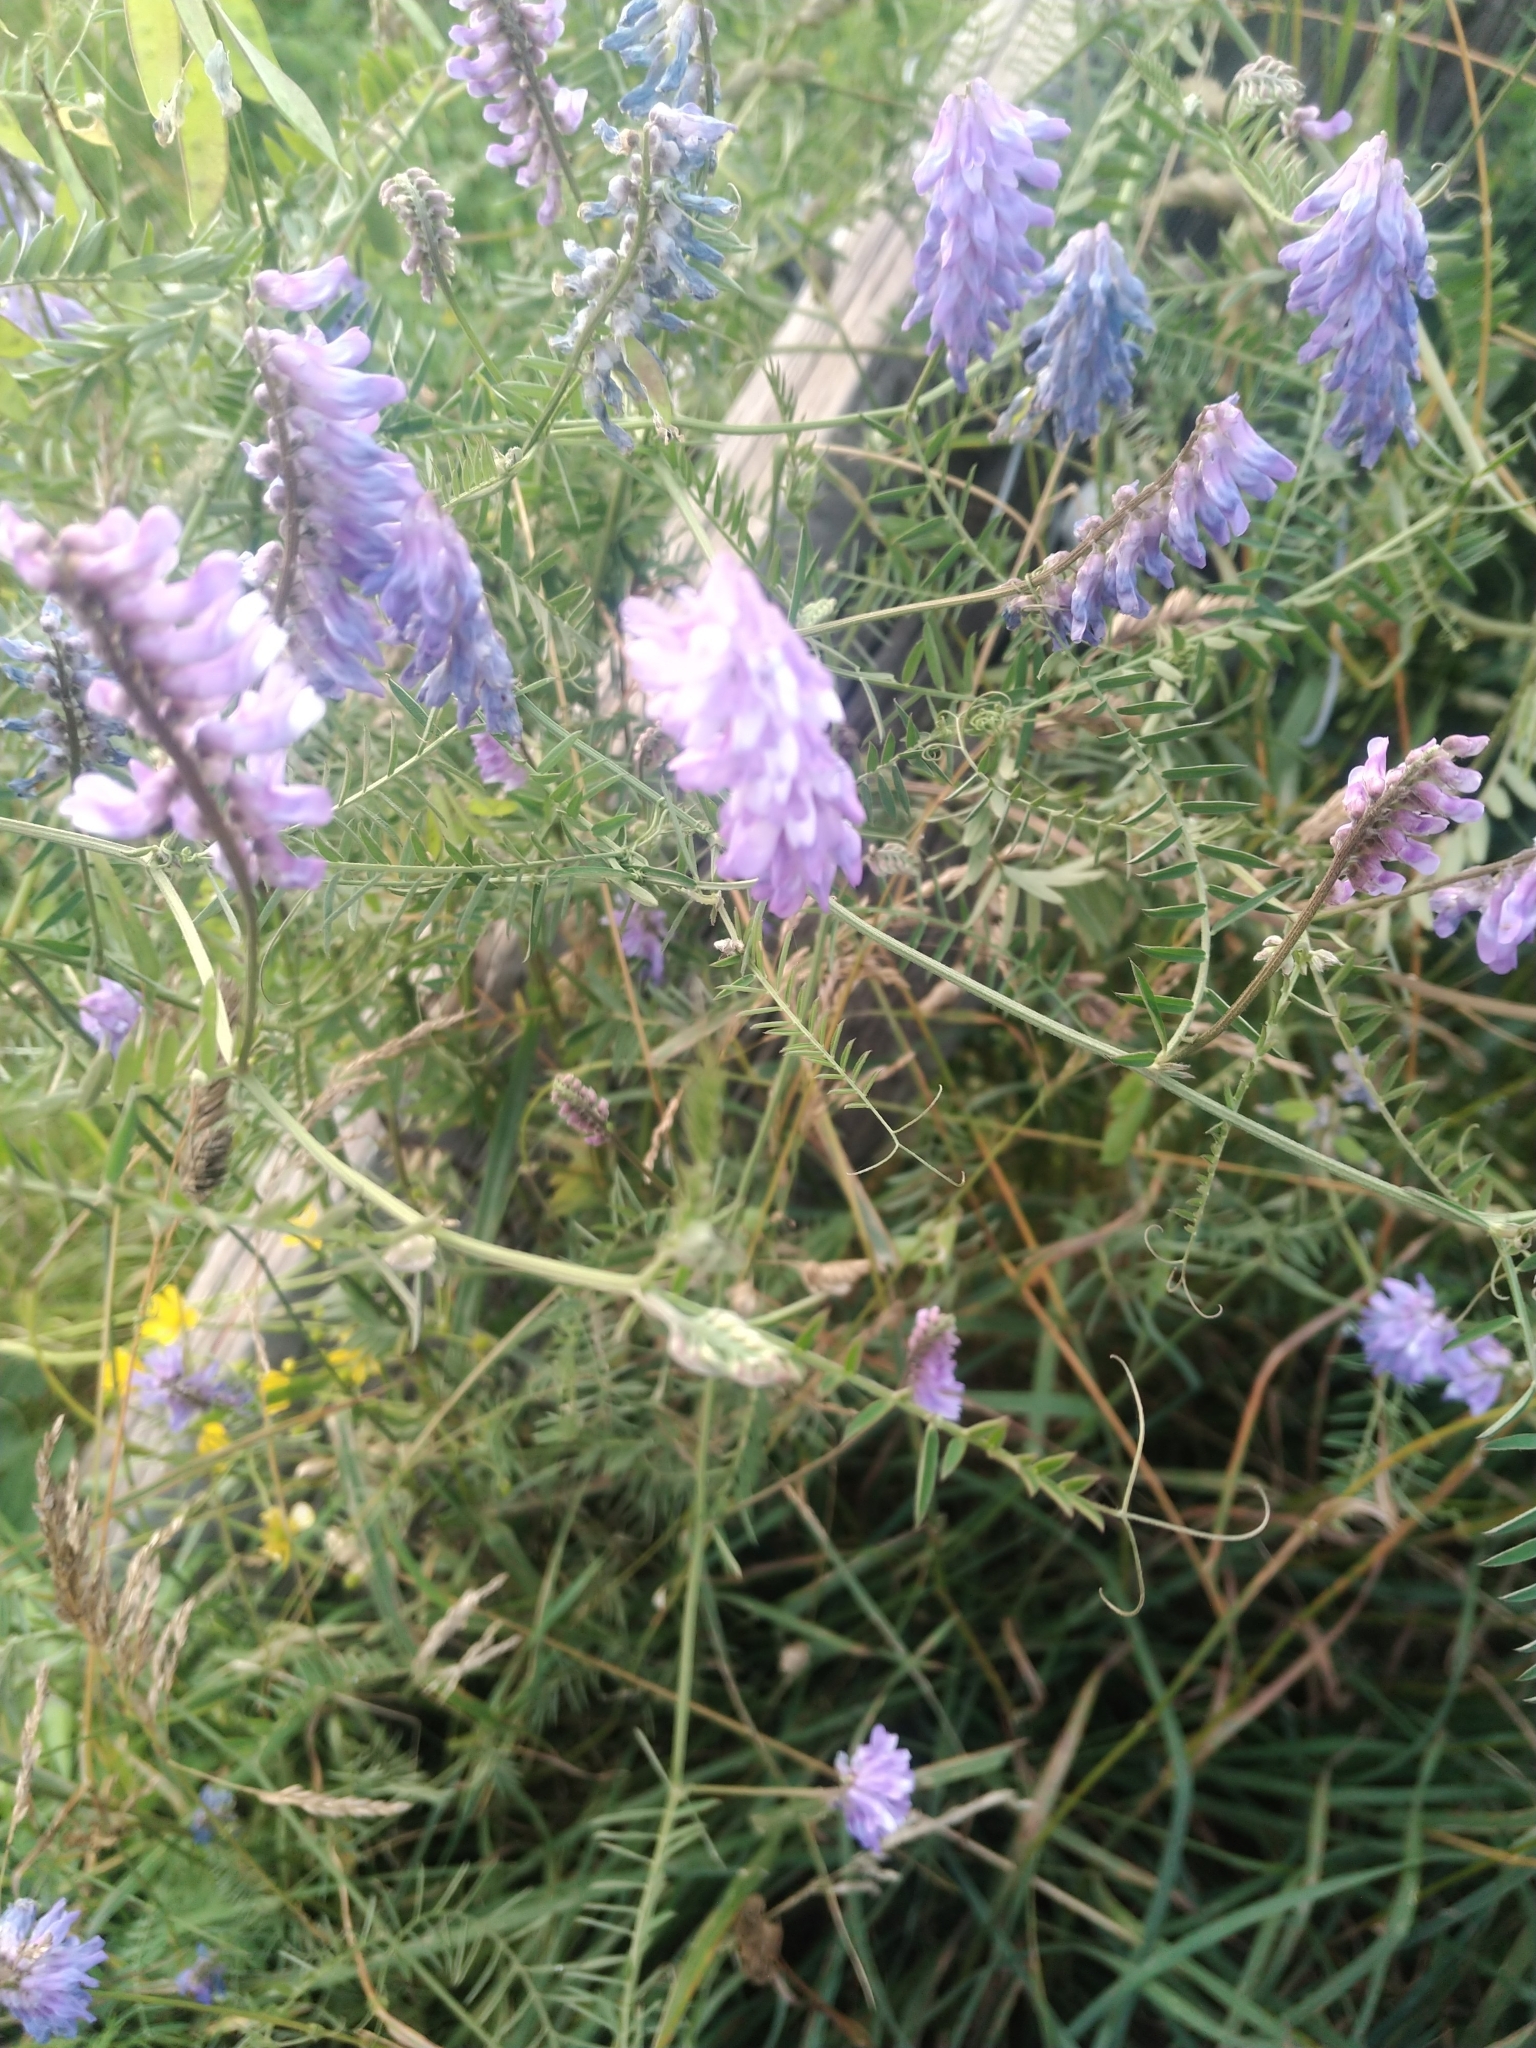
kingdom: Plantae
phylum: Tracheophyta
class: Magnoliopsida
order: Fabales
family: Fabaceae
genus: Vicia
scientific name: Vicia cracca
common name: Bird vetch
